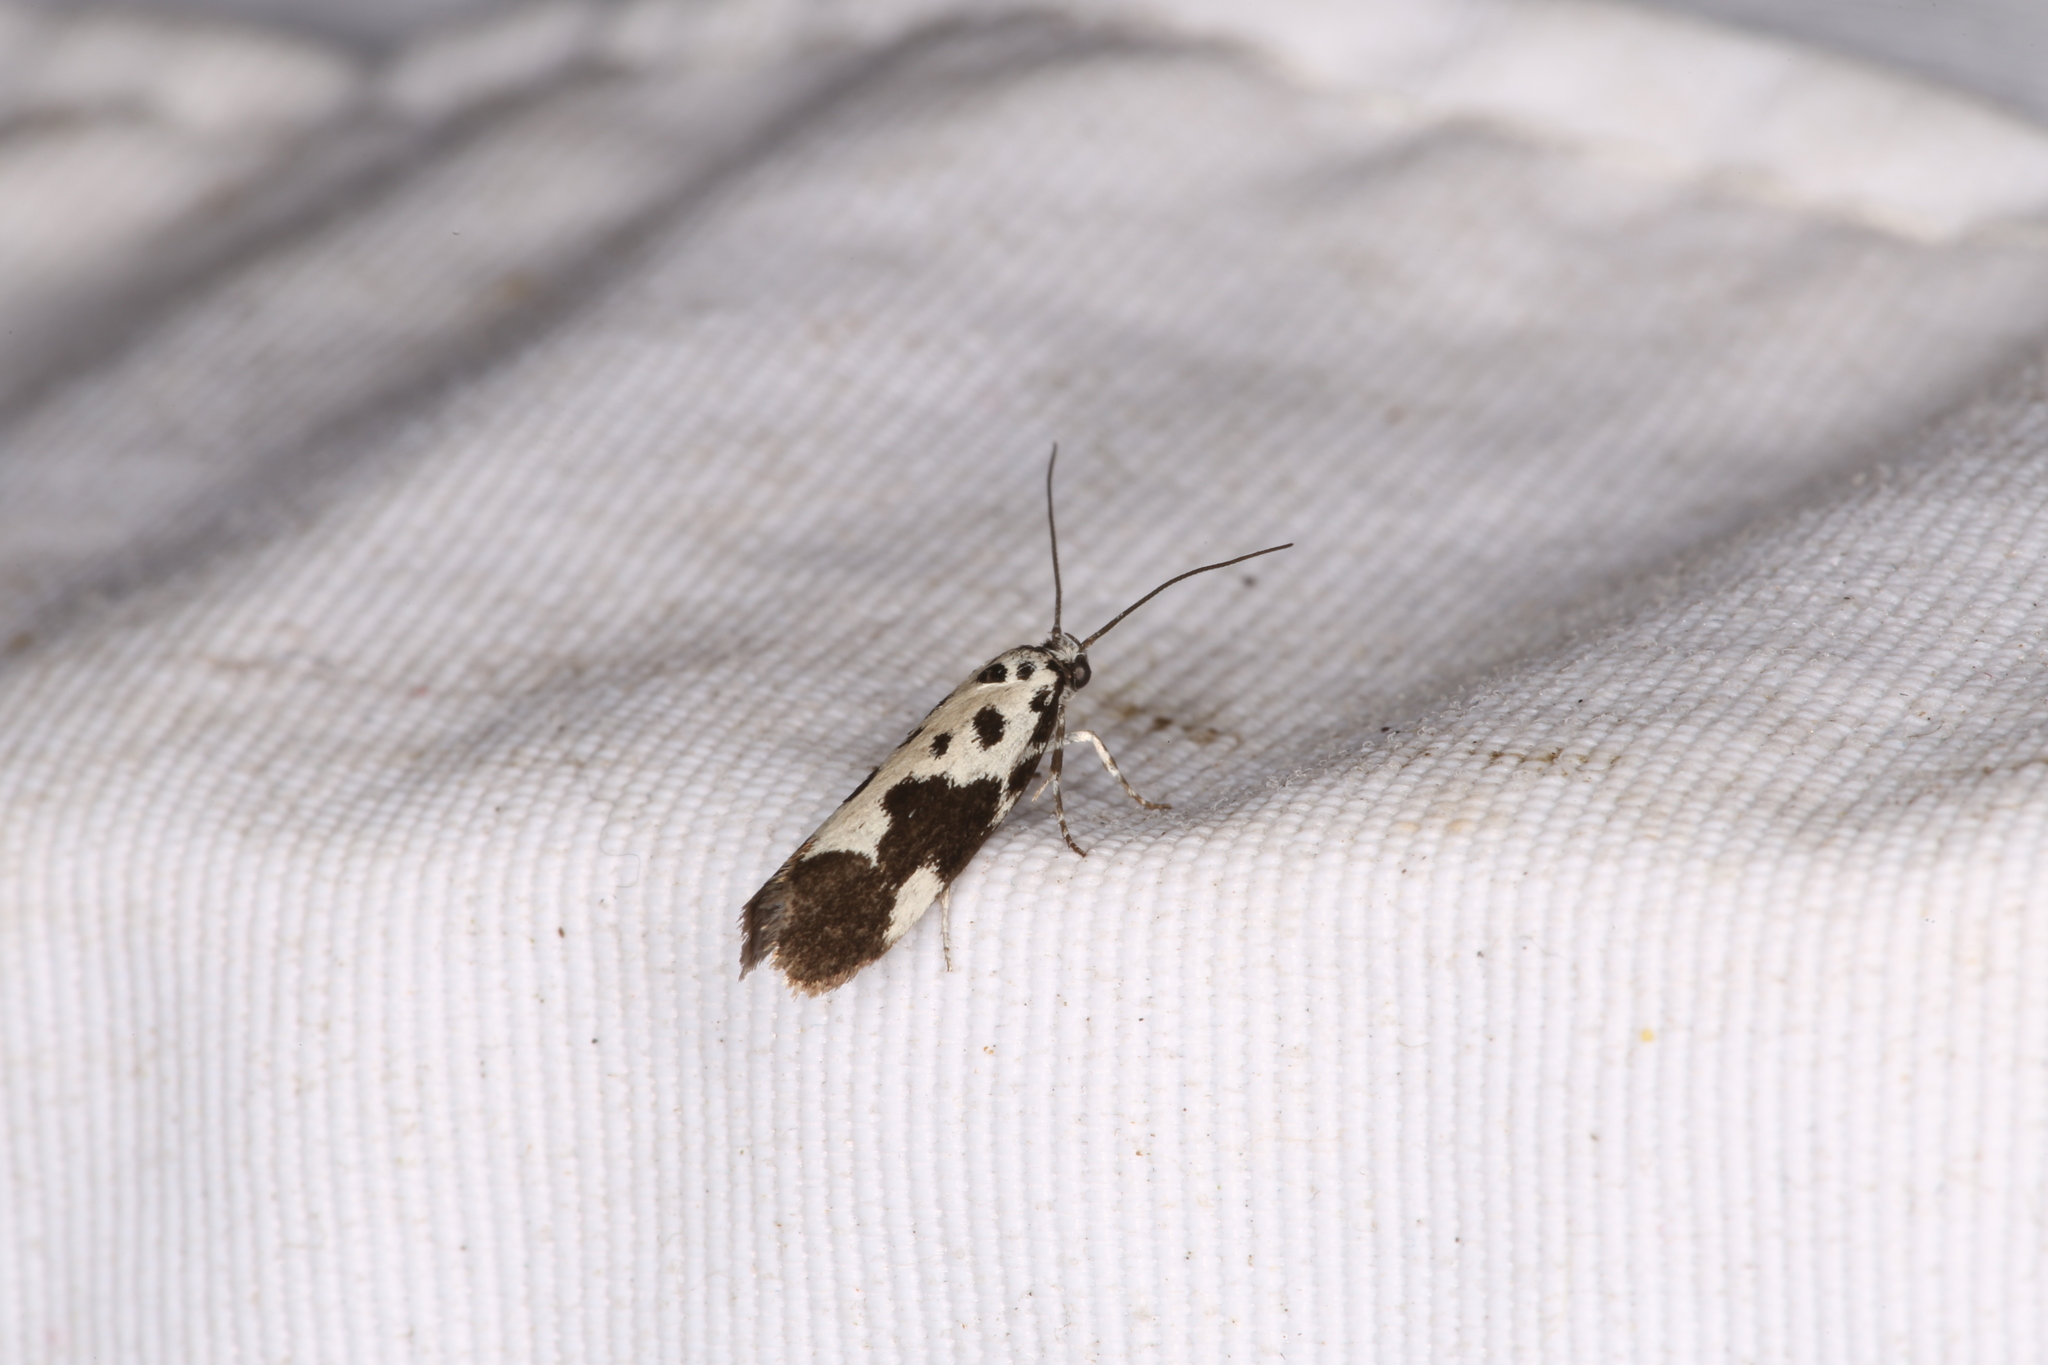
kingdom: Animalia
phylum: Arthropoda
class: Insecta
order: Lepidoptera
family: Ethmiidae
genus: Ethmia
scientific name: Ethmia quadrillella
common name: Comfrey ermel
